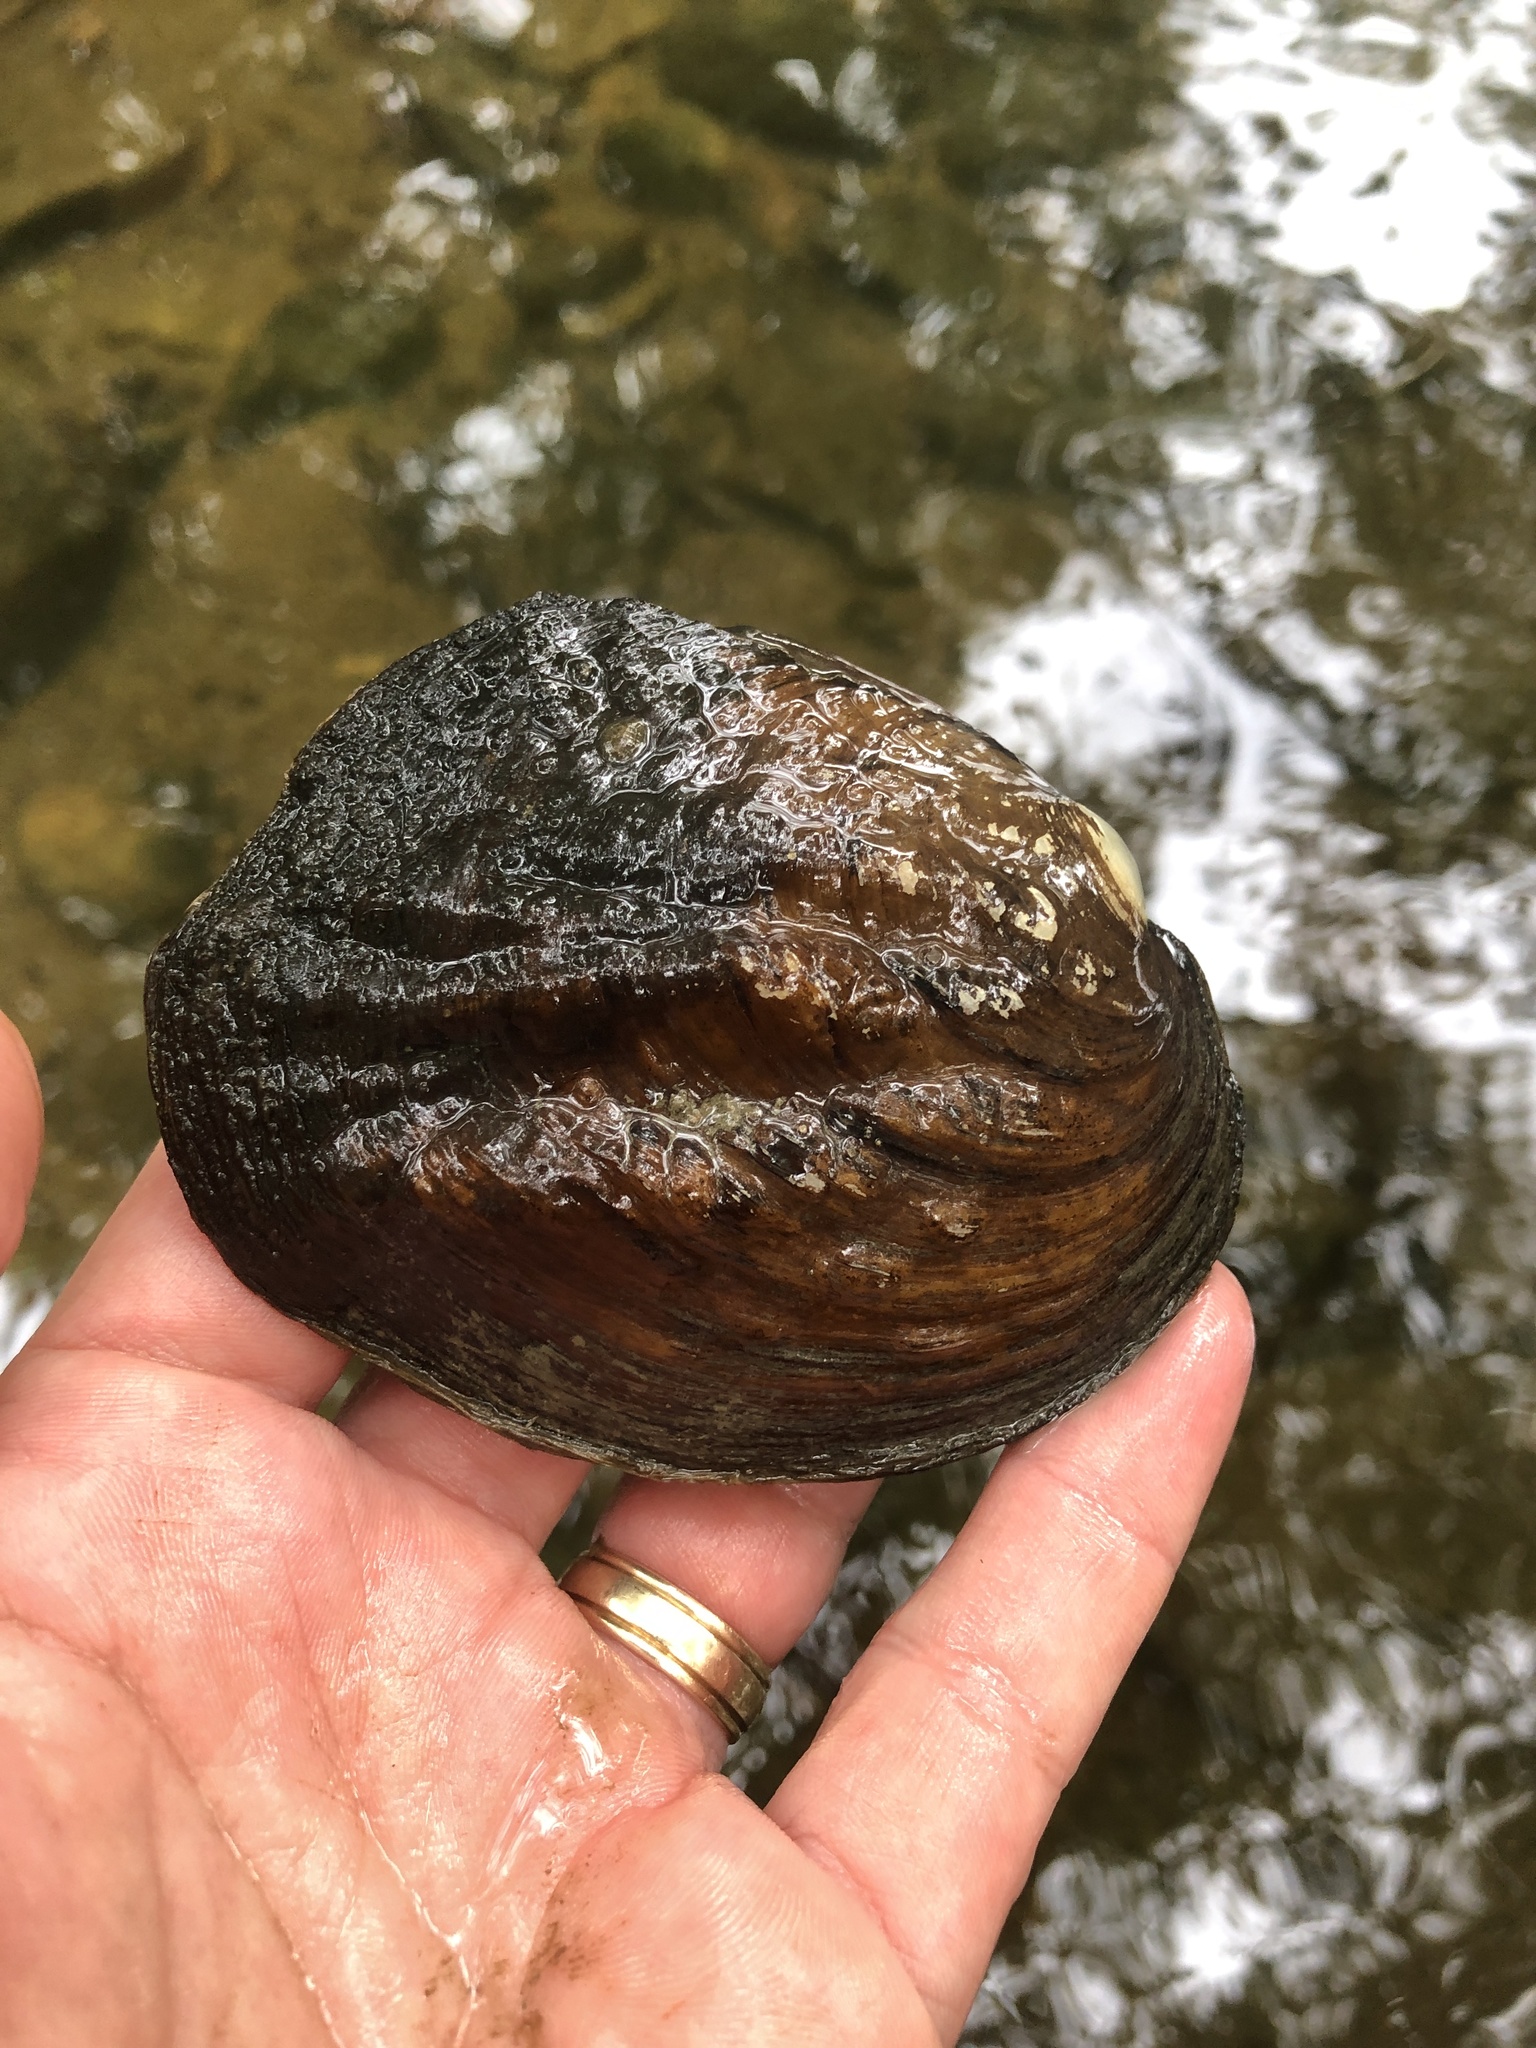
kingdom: Animalia
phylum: Mollusca
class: Bivalvia
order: Unionida
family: Unionidae
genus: Amblema
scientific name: Amblema plicata
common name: Threeridge
